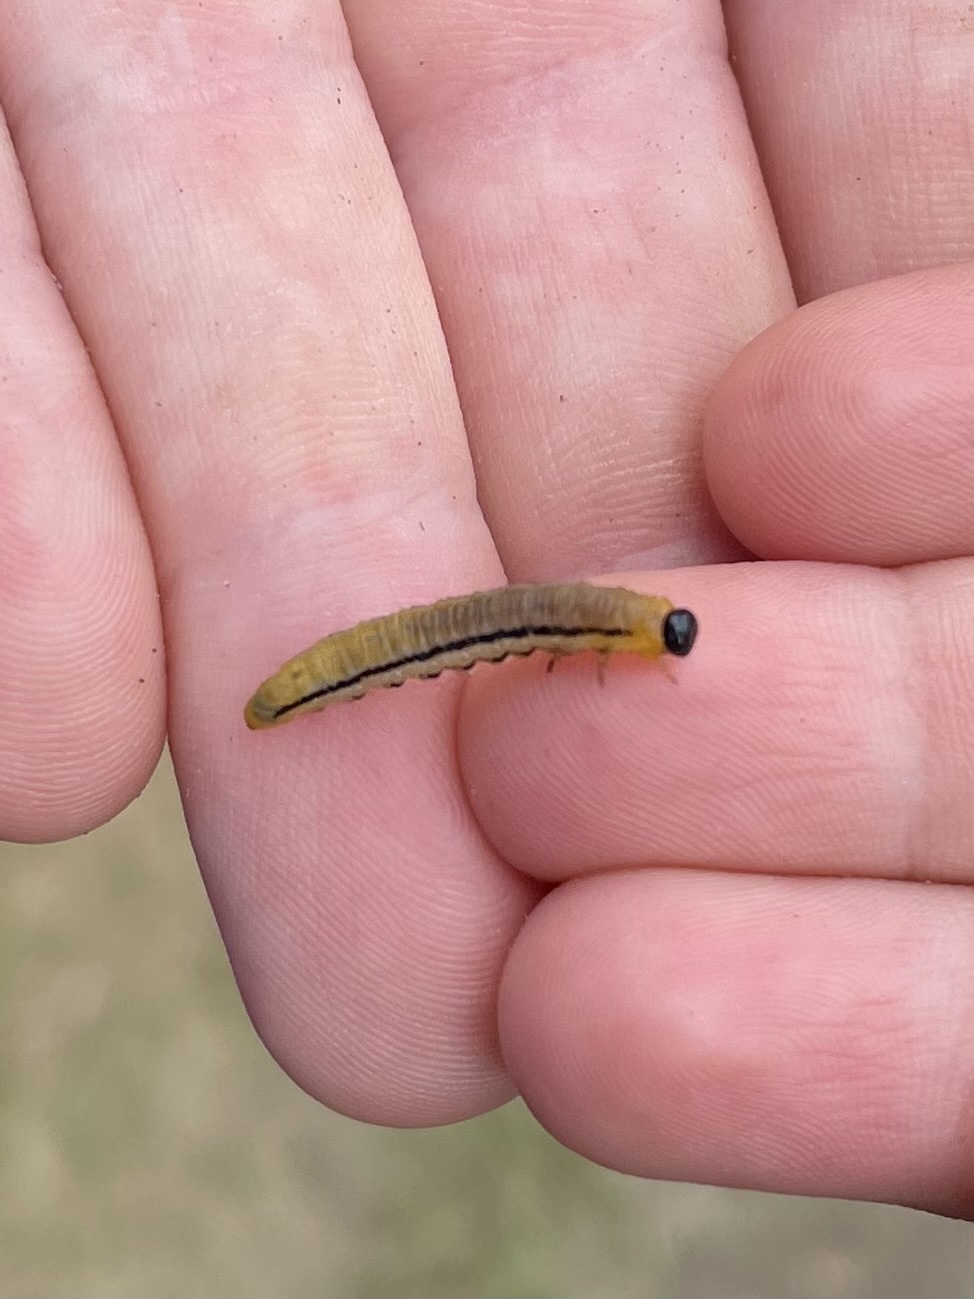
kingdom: Animalia
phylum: Arthropoda
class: Insecta
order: Hymenoptera
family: Tenthredinidae
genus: Hemichroa
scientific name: Hemichroa crocea
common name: Striped alder sawfly
